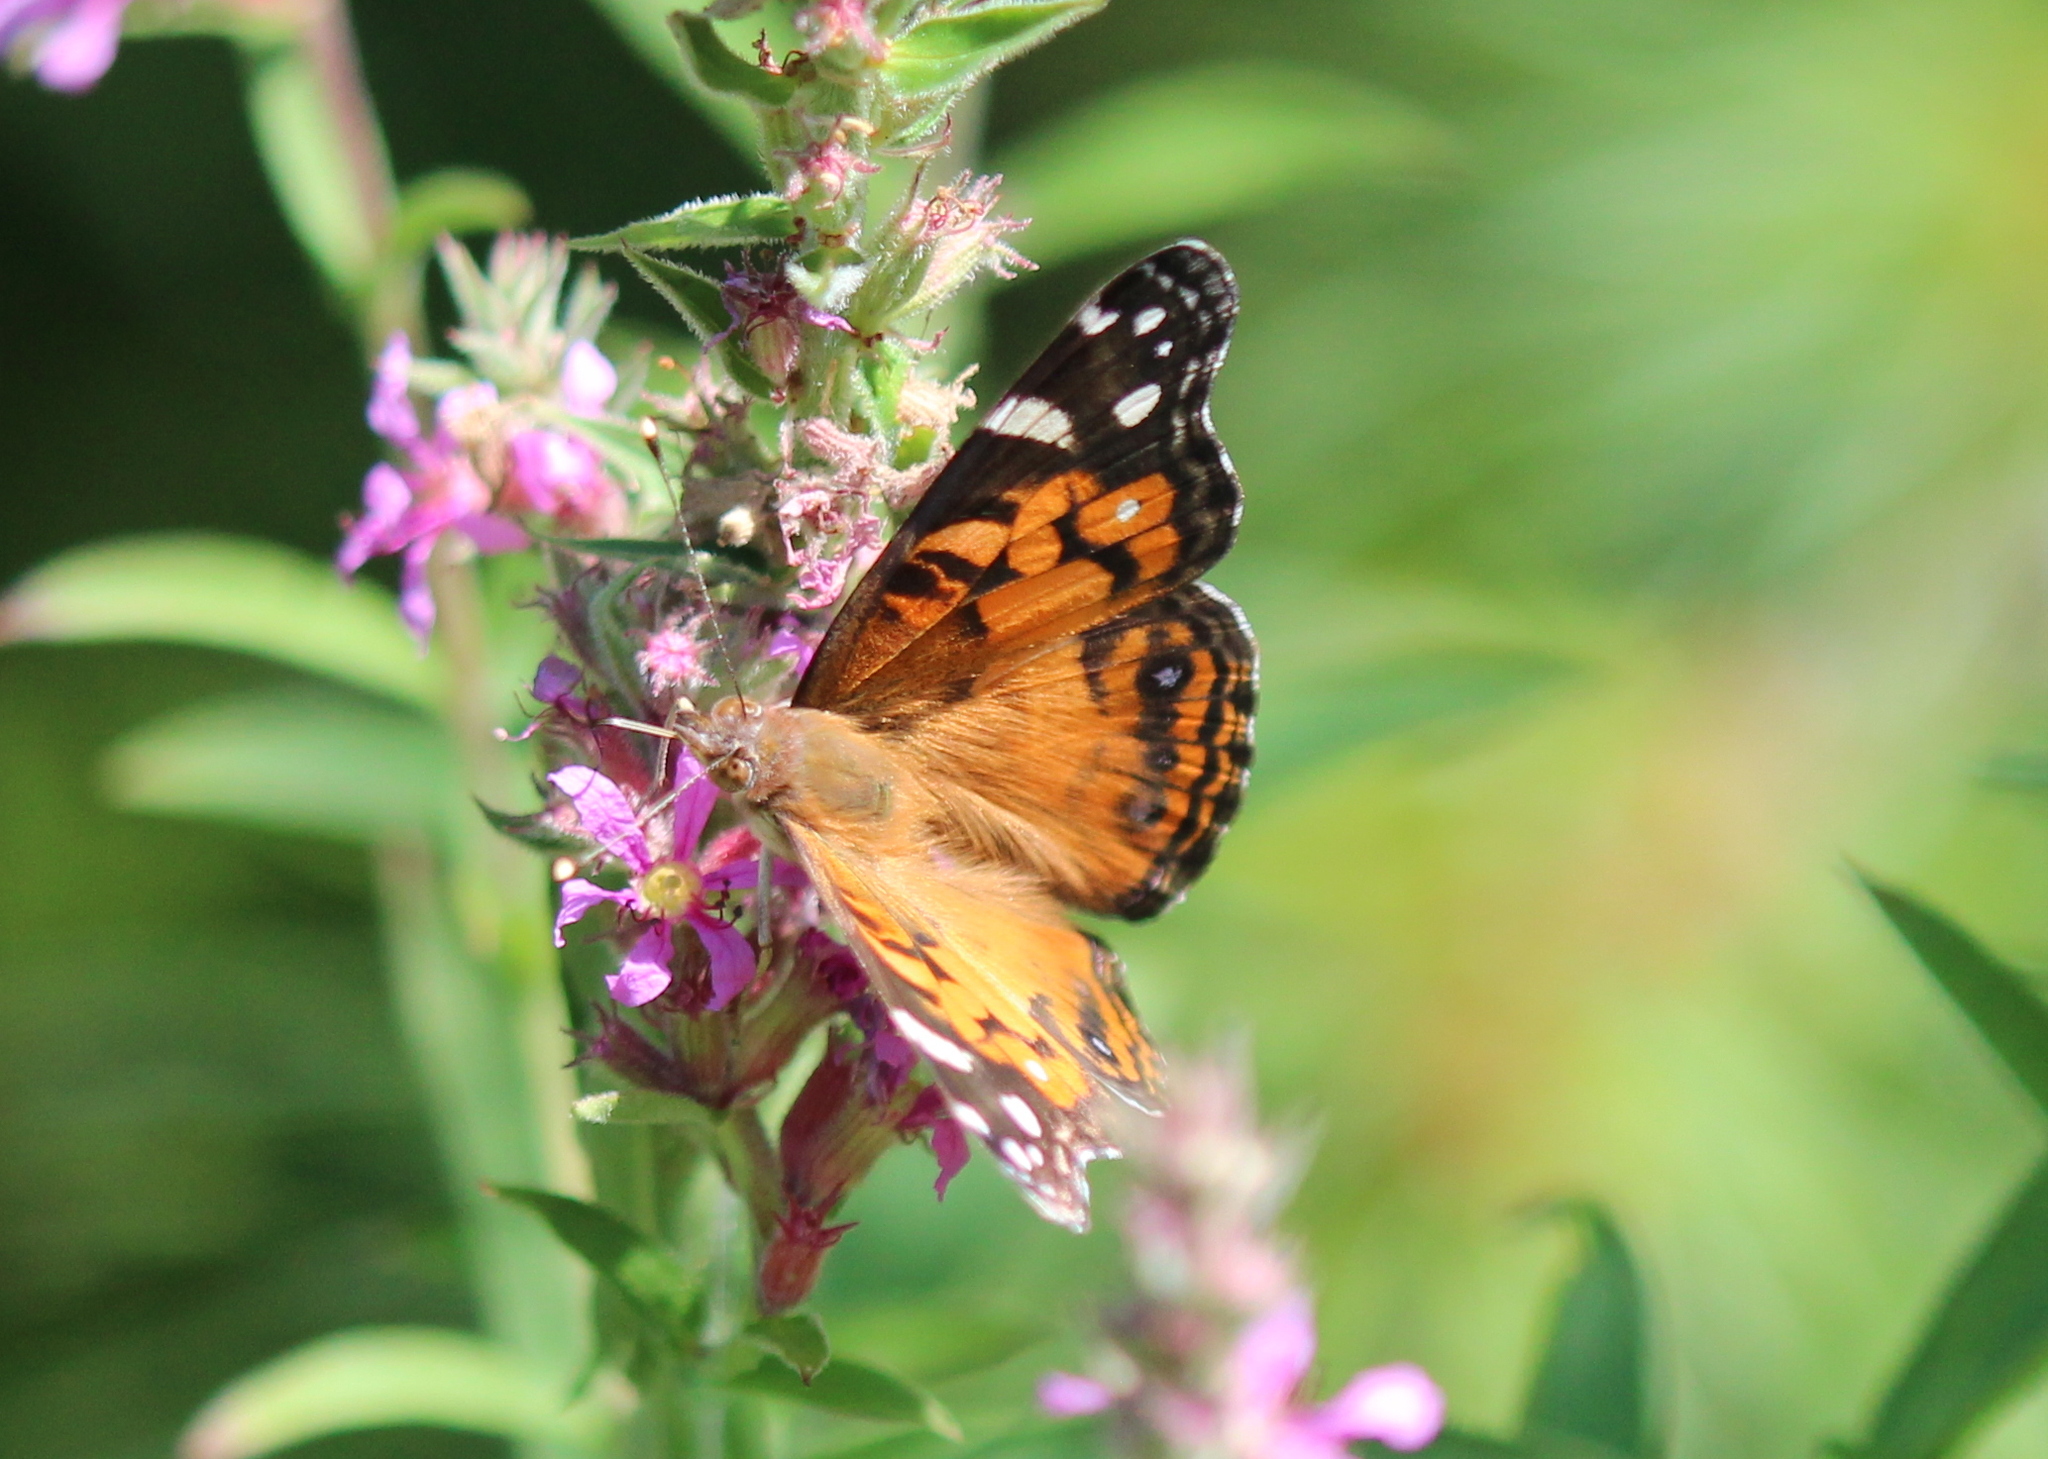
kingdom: Animalia
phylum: Arthropoda
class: Insecta
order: Lepidoptera
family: Nymphalidae
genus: Vanessa
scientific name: Vanessa virginiensis
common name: American lady
